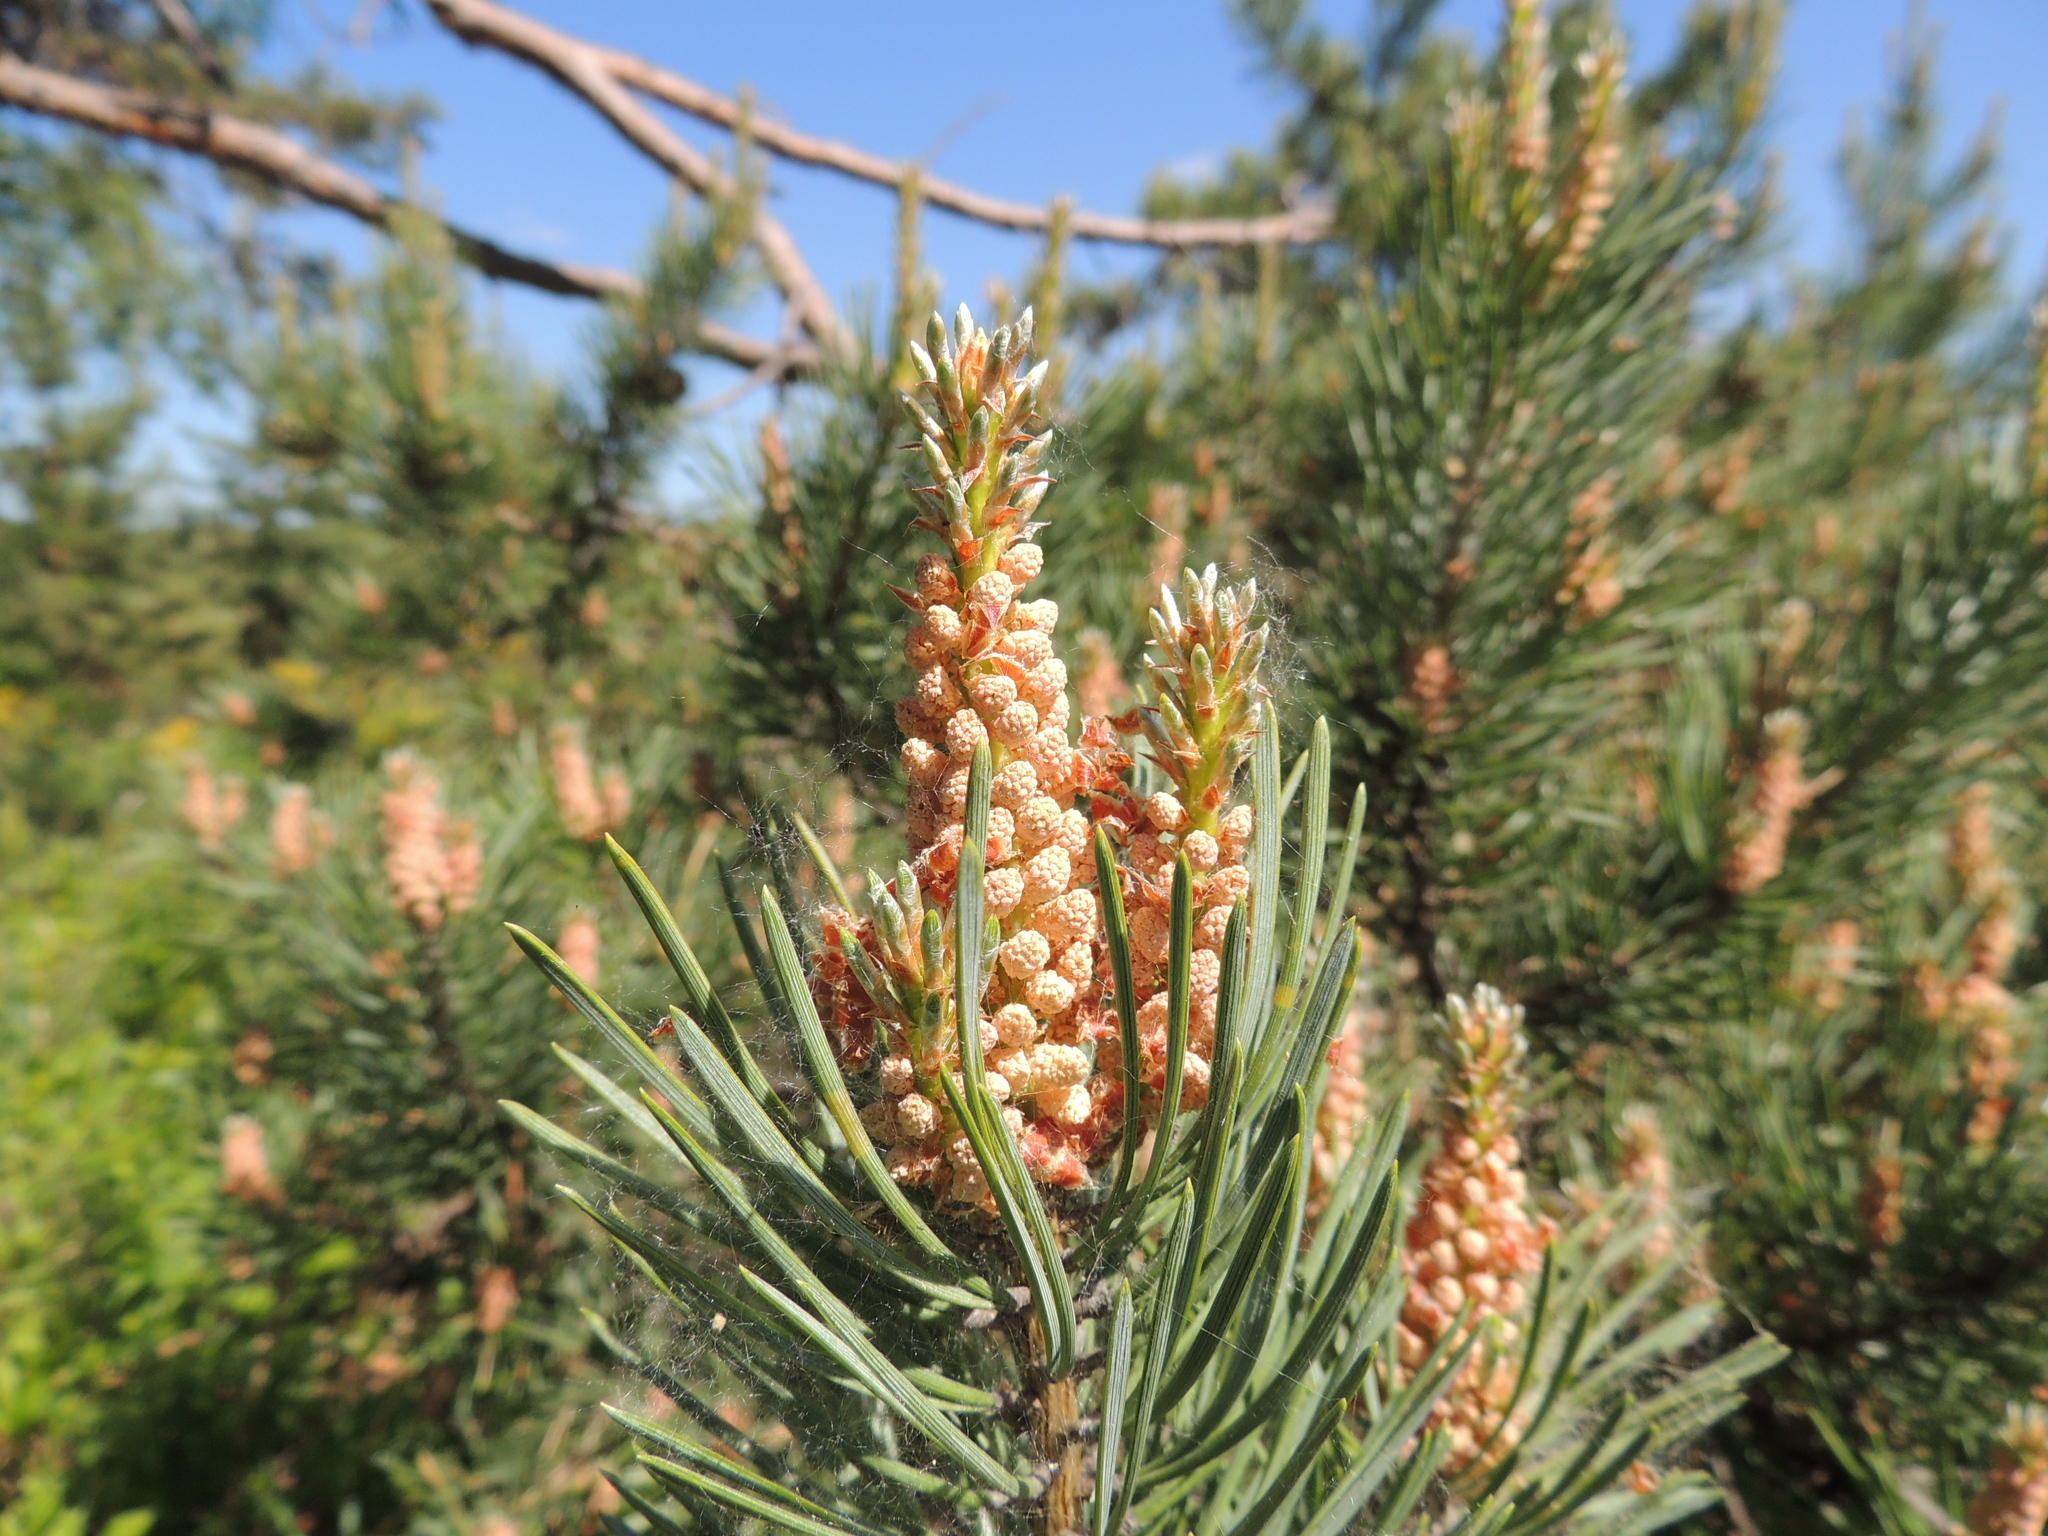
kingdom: Plantae
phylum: Tracheophyta
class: Pinopsida
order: Pinales
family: Pinaceae
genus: Pinus
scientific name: Pinus sylvestris
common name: Scots pine
